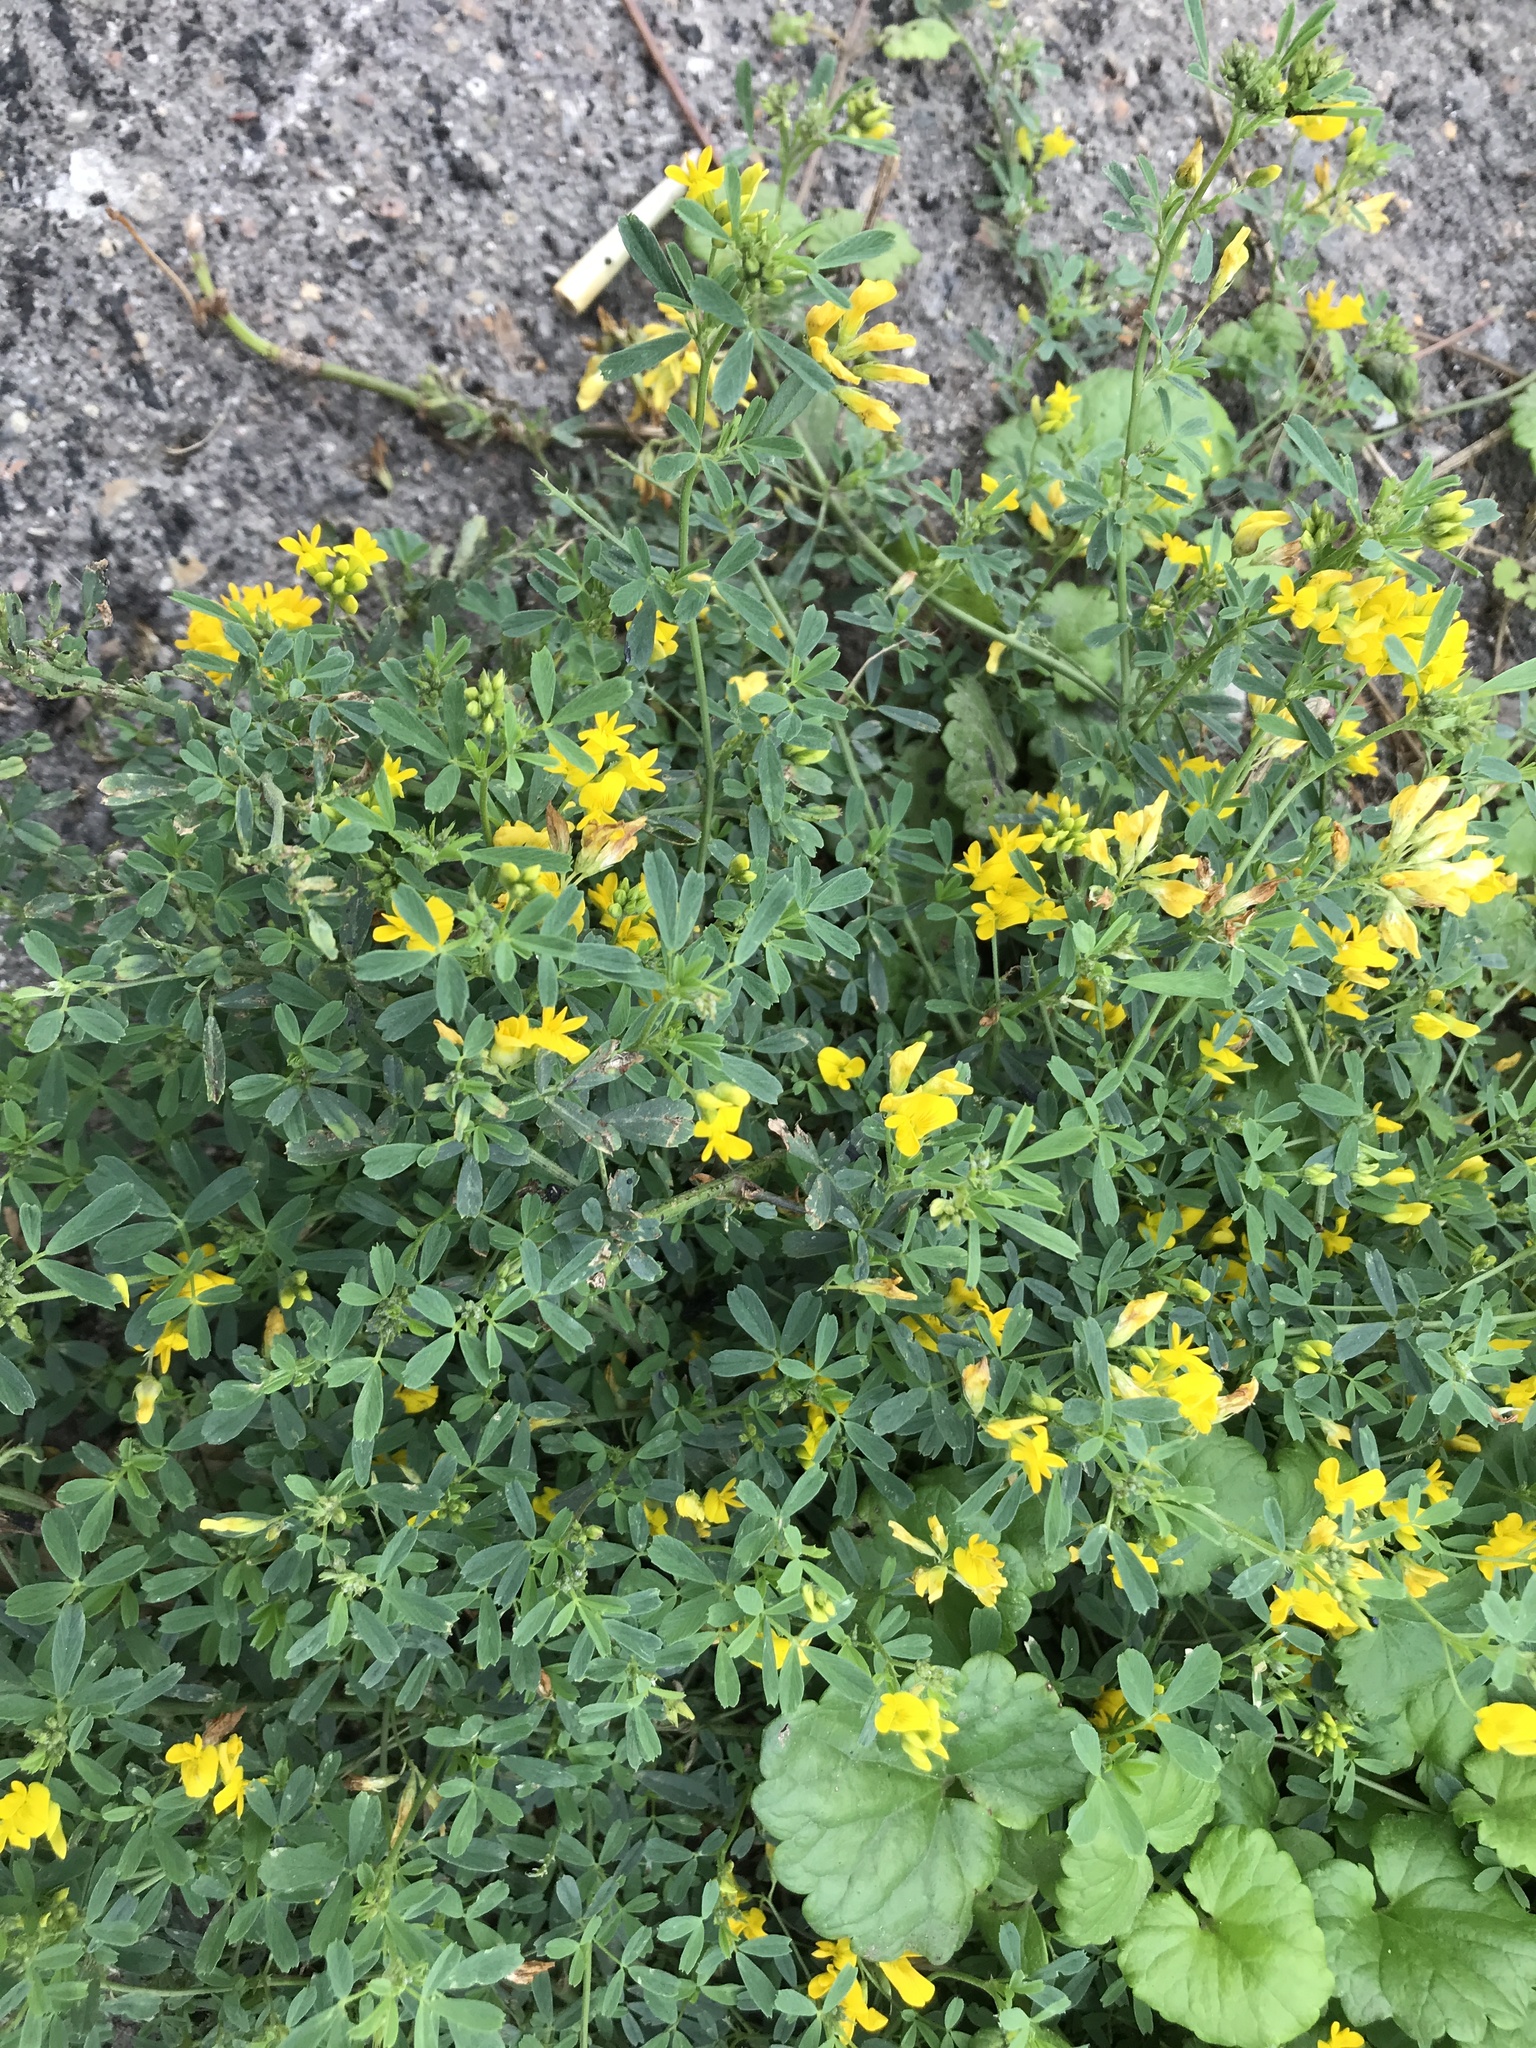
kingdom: Plantae
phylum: Tracheophyta
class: Magnoliopsida
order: Fabales
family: Fabaceae
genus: Medicago
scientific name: Medicago falcata
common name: Sickle medick
